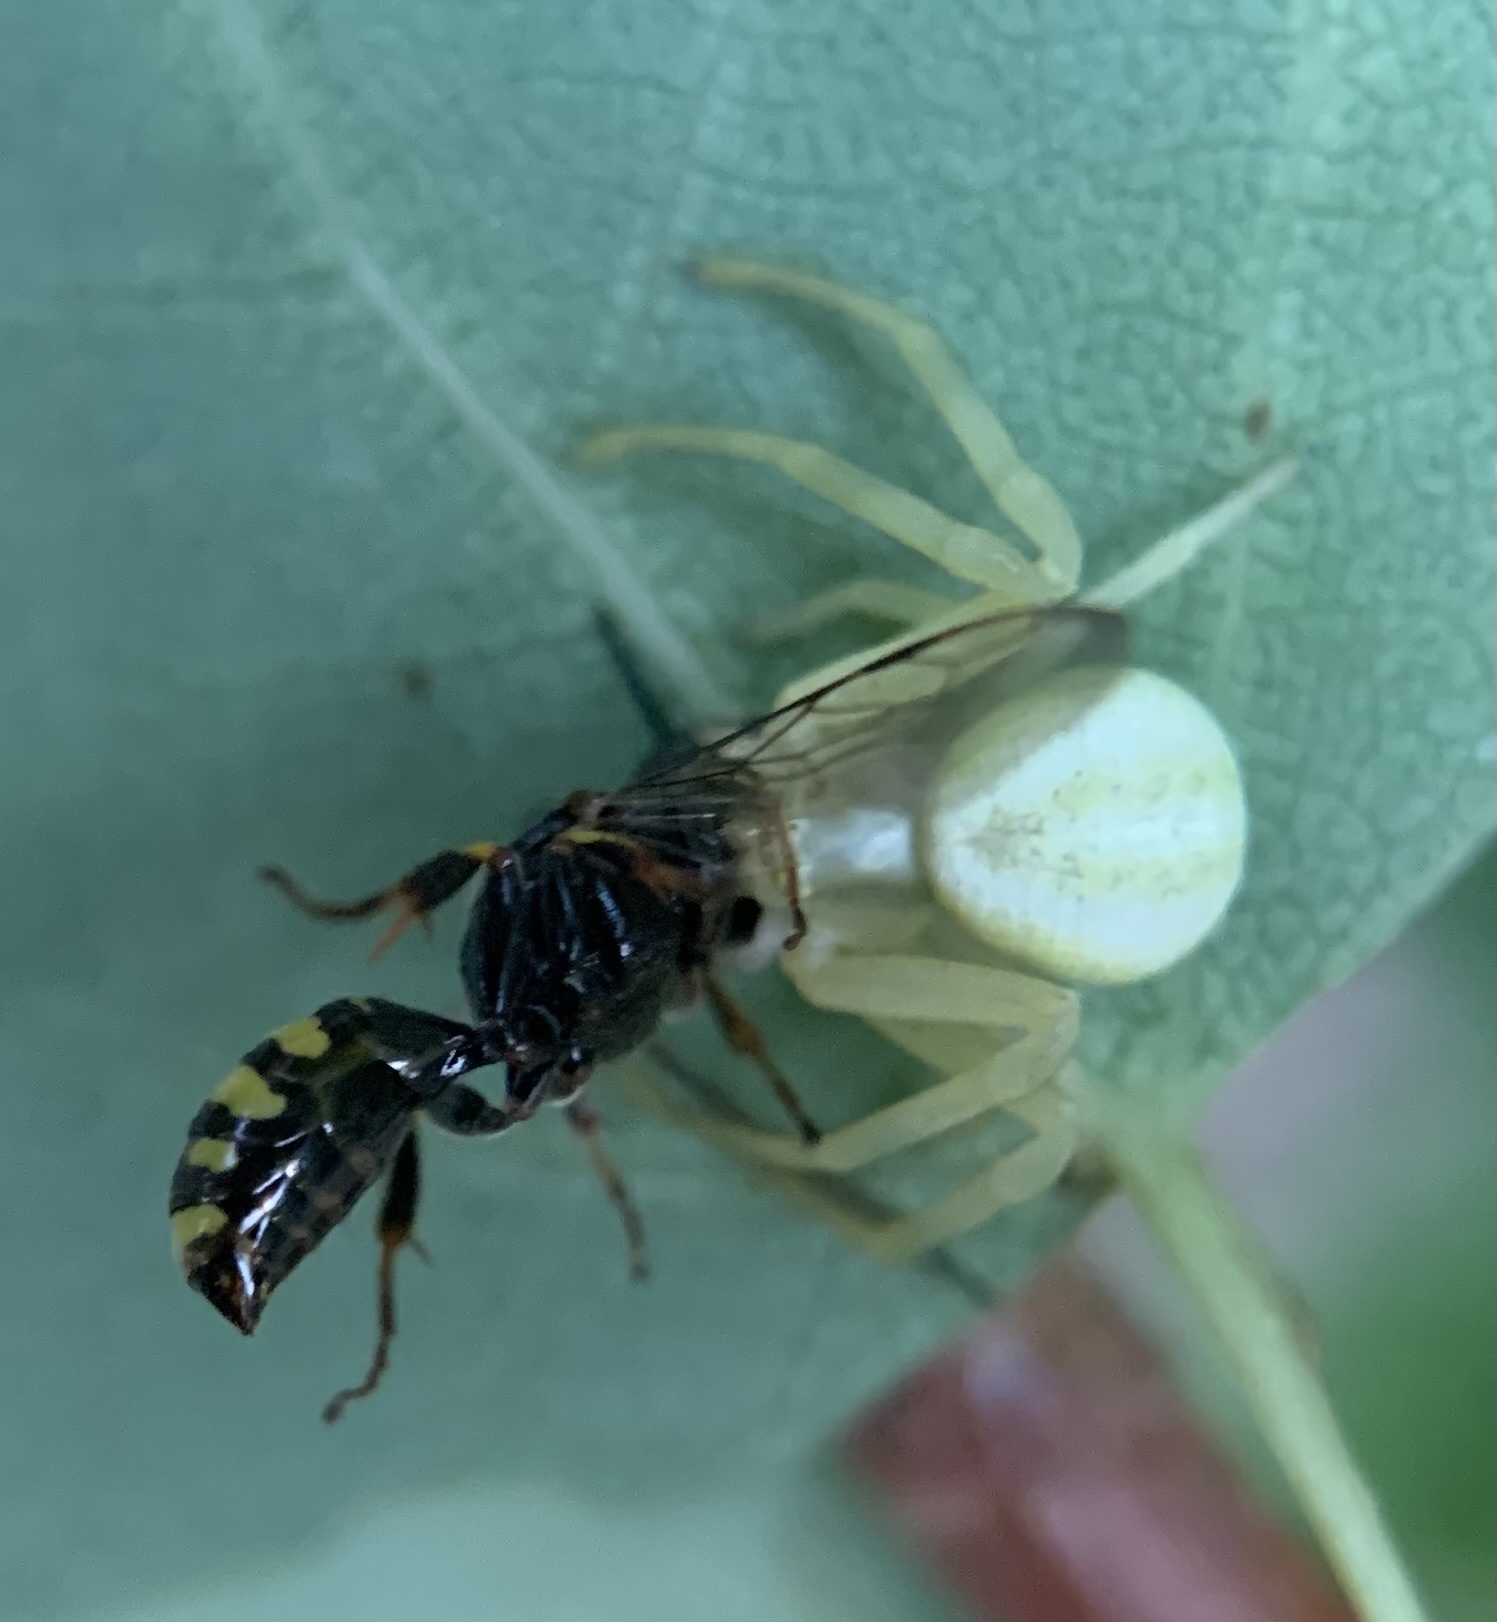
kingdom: Animalia
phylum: Arthropoda
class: Arachnida
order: Araneae
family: Thomisidae
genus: Misumena
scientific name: Misumena vatia
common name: Goldenrod crab spider
